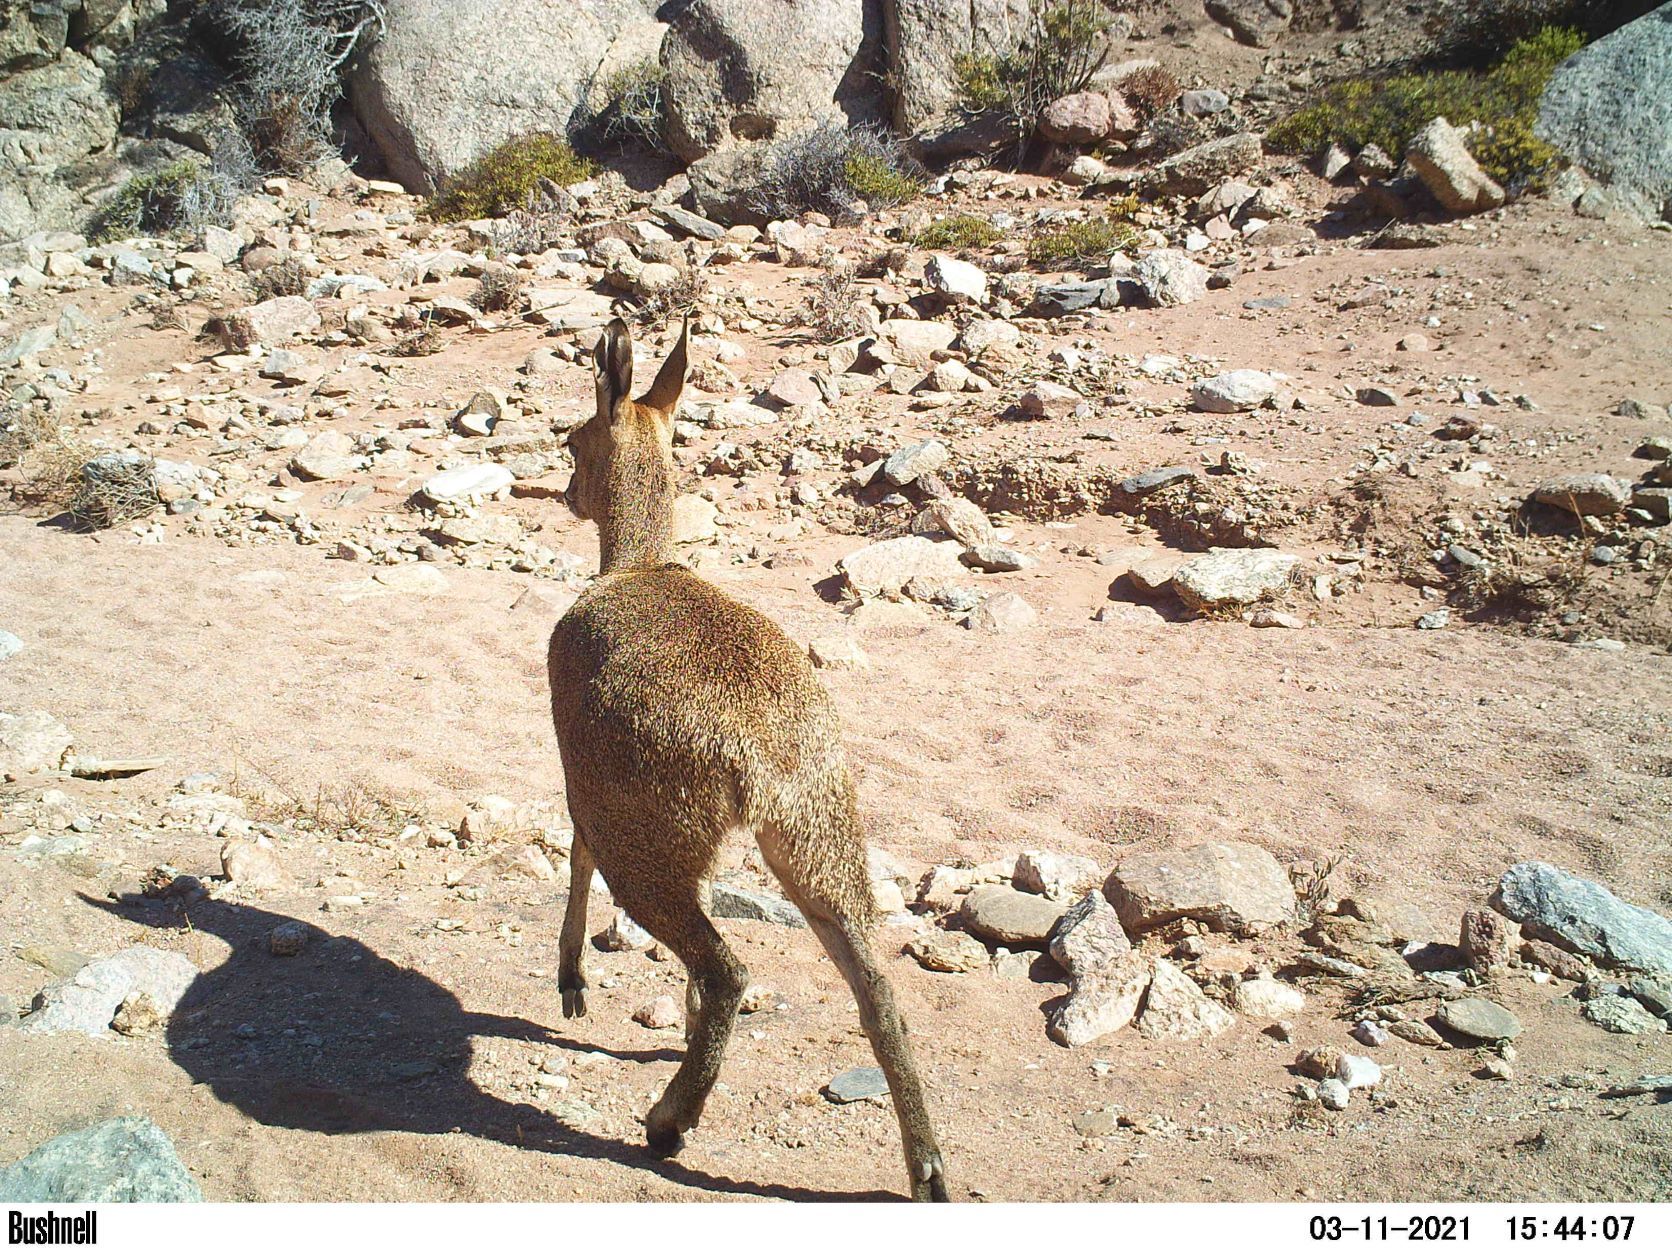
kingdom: Animalia
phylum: Chordata
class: Mammalia
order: Artiodactyla
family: Bovidae
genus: Oreotragus
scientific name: Oreotragus oreotragus
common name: Klipspringer
